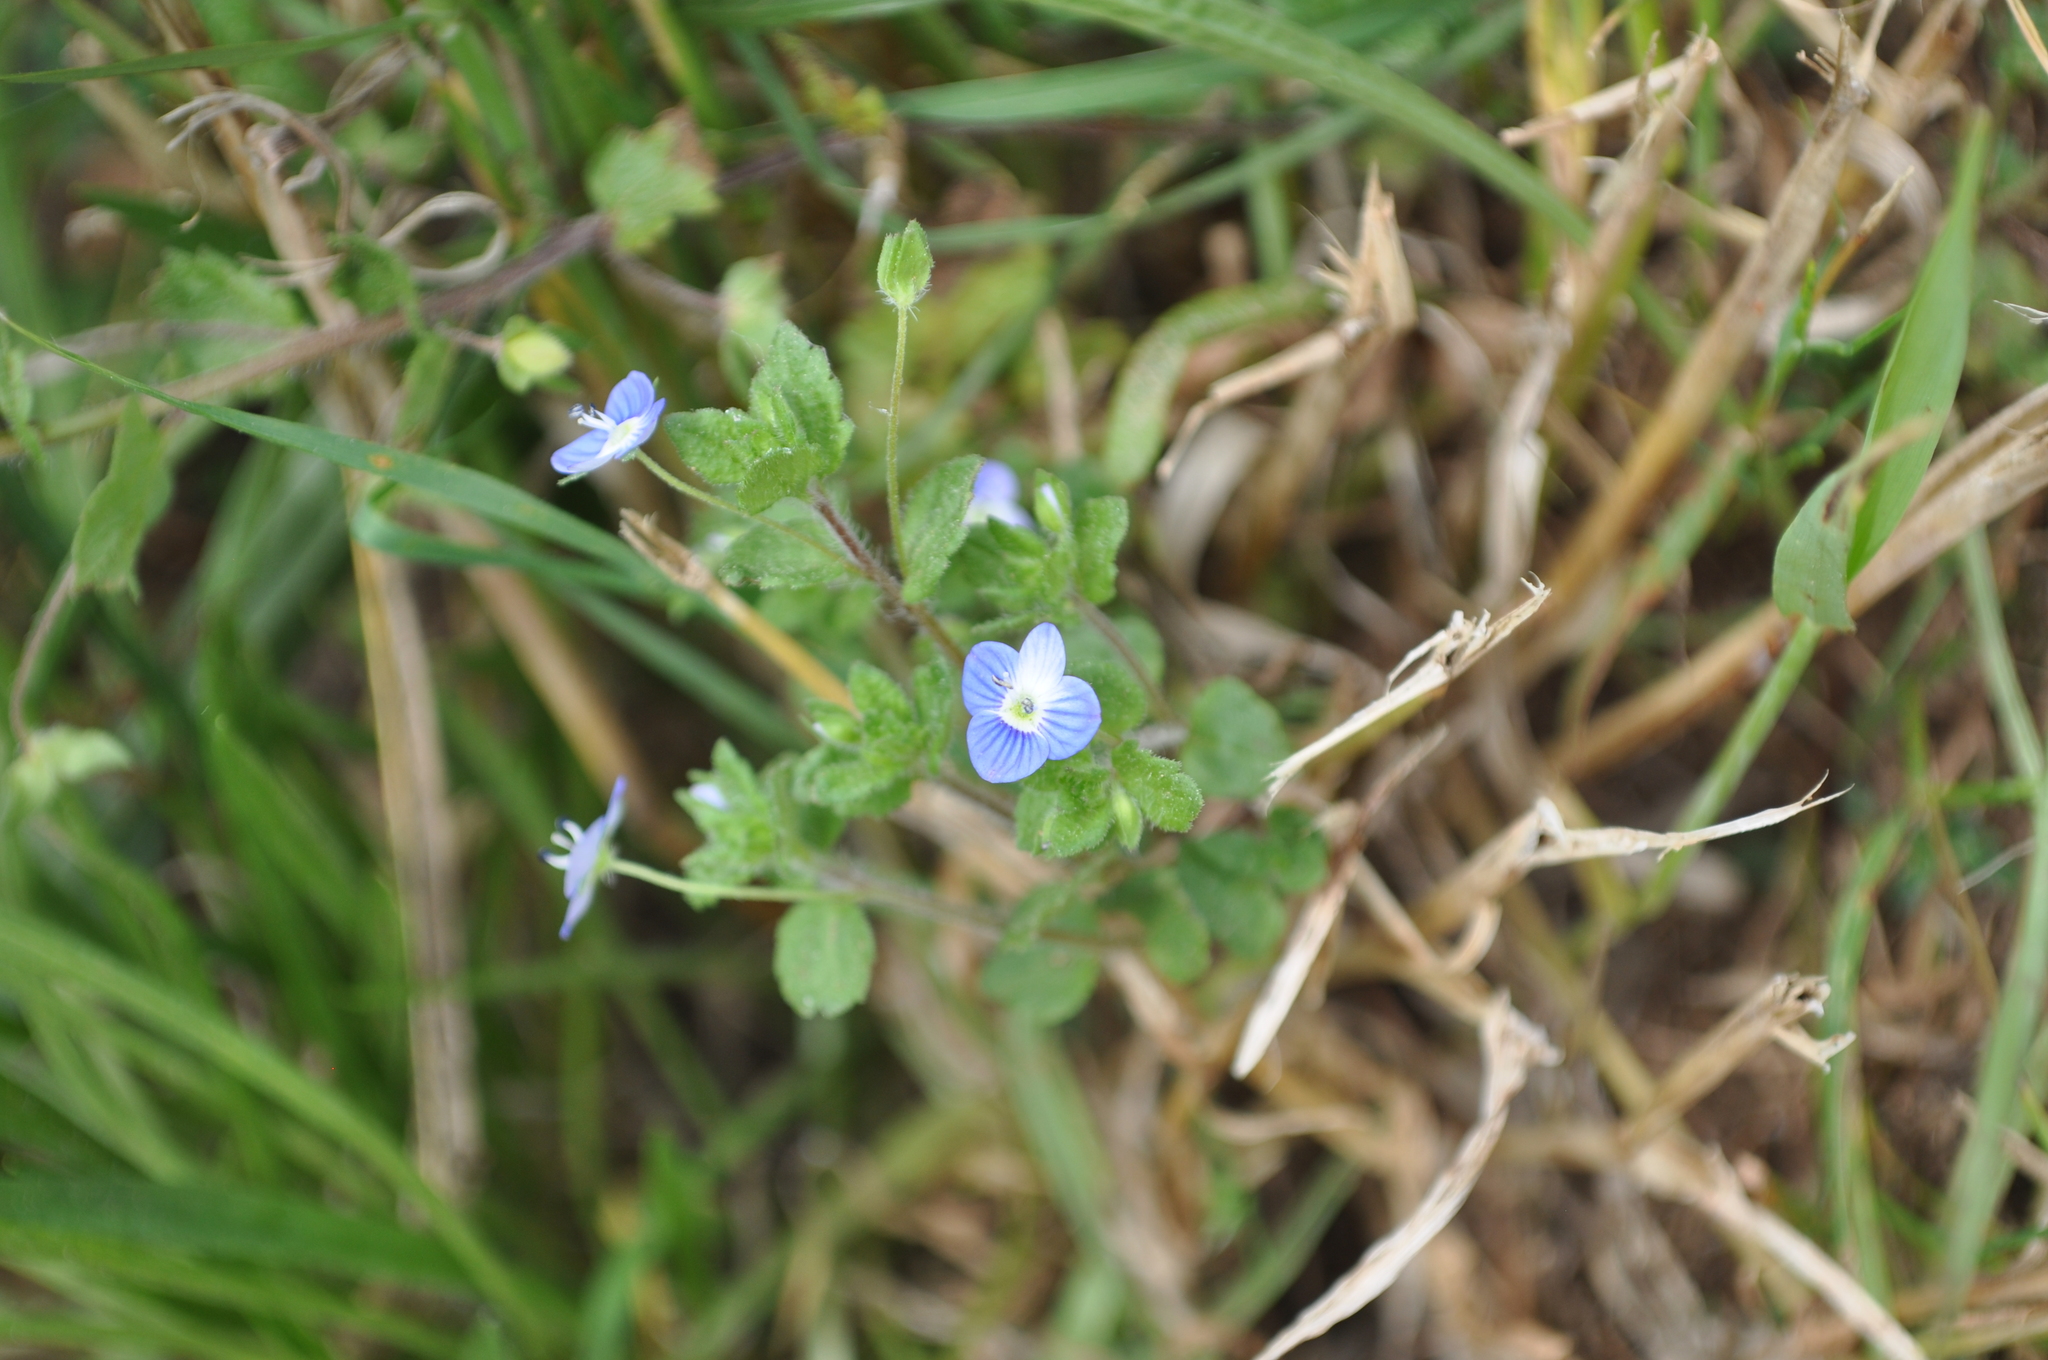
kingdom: Plantae
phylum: Tracheophyta
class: Magnoliopsida
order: Lamiales
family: Plantaginaceae
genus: Veronica
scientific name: Veronica persica
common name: Common field-speedwell
